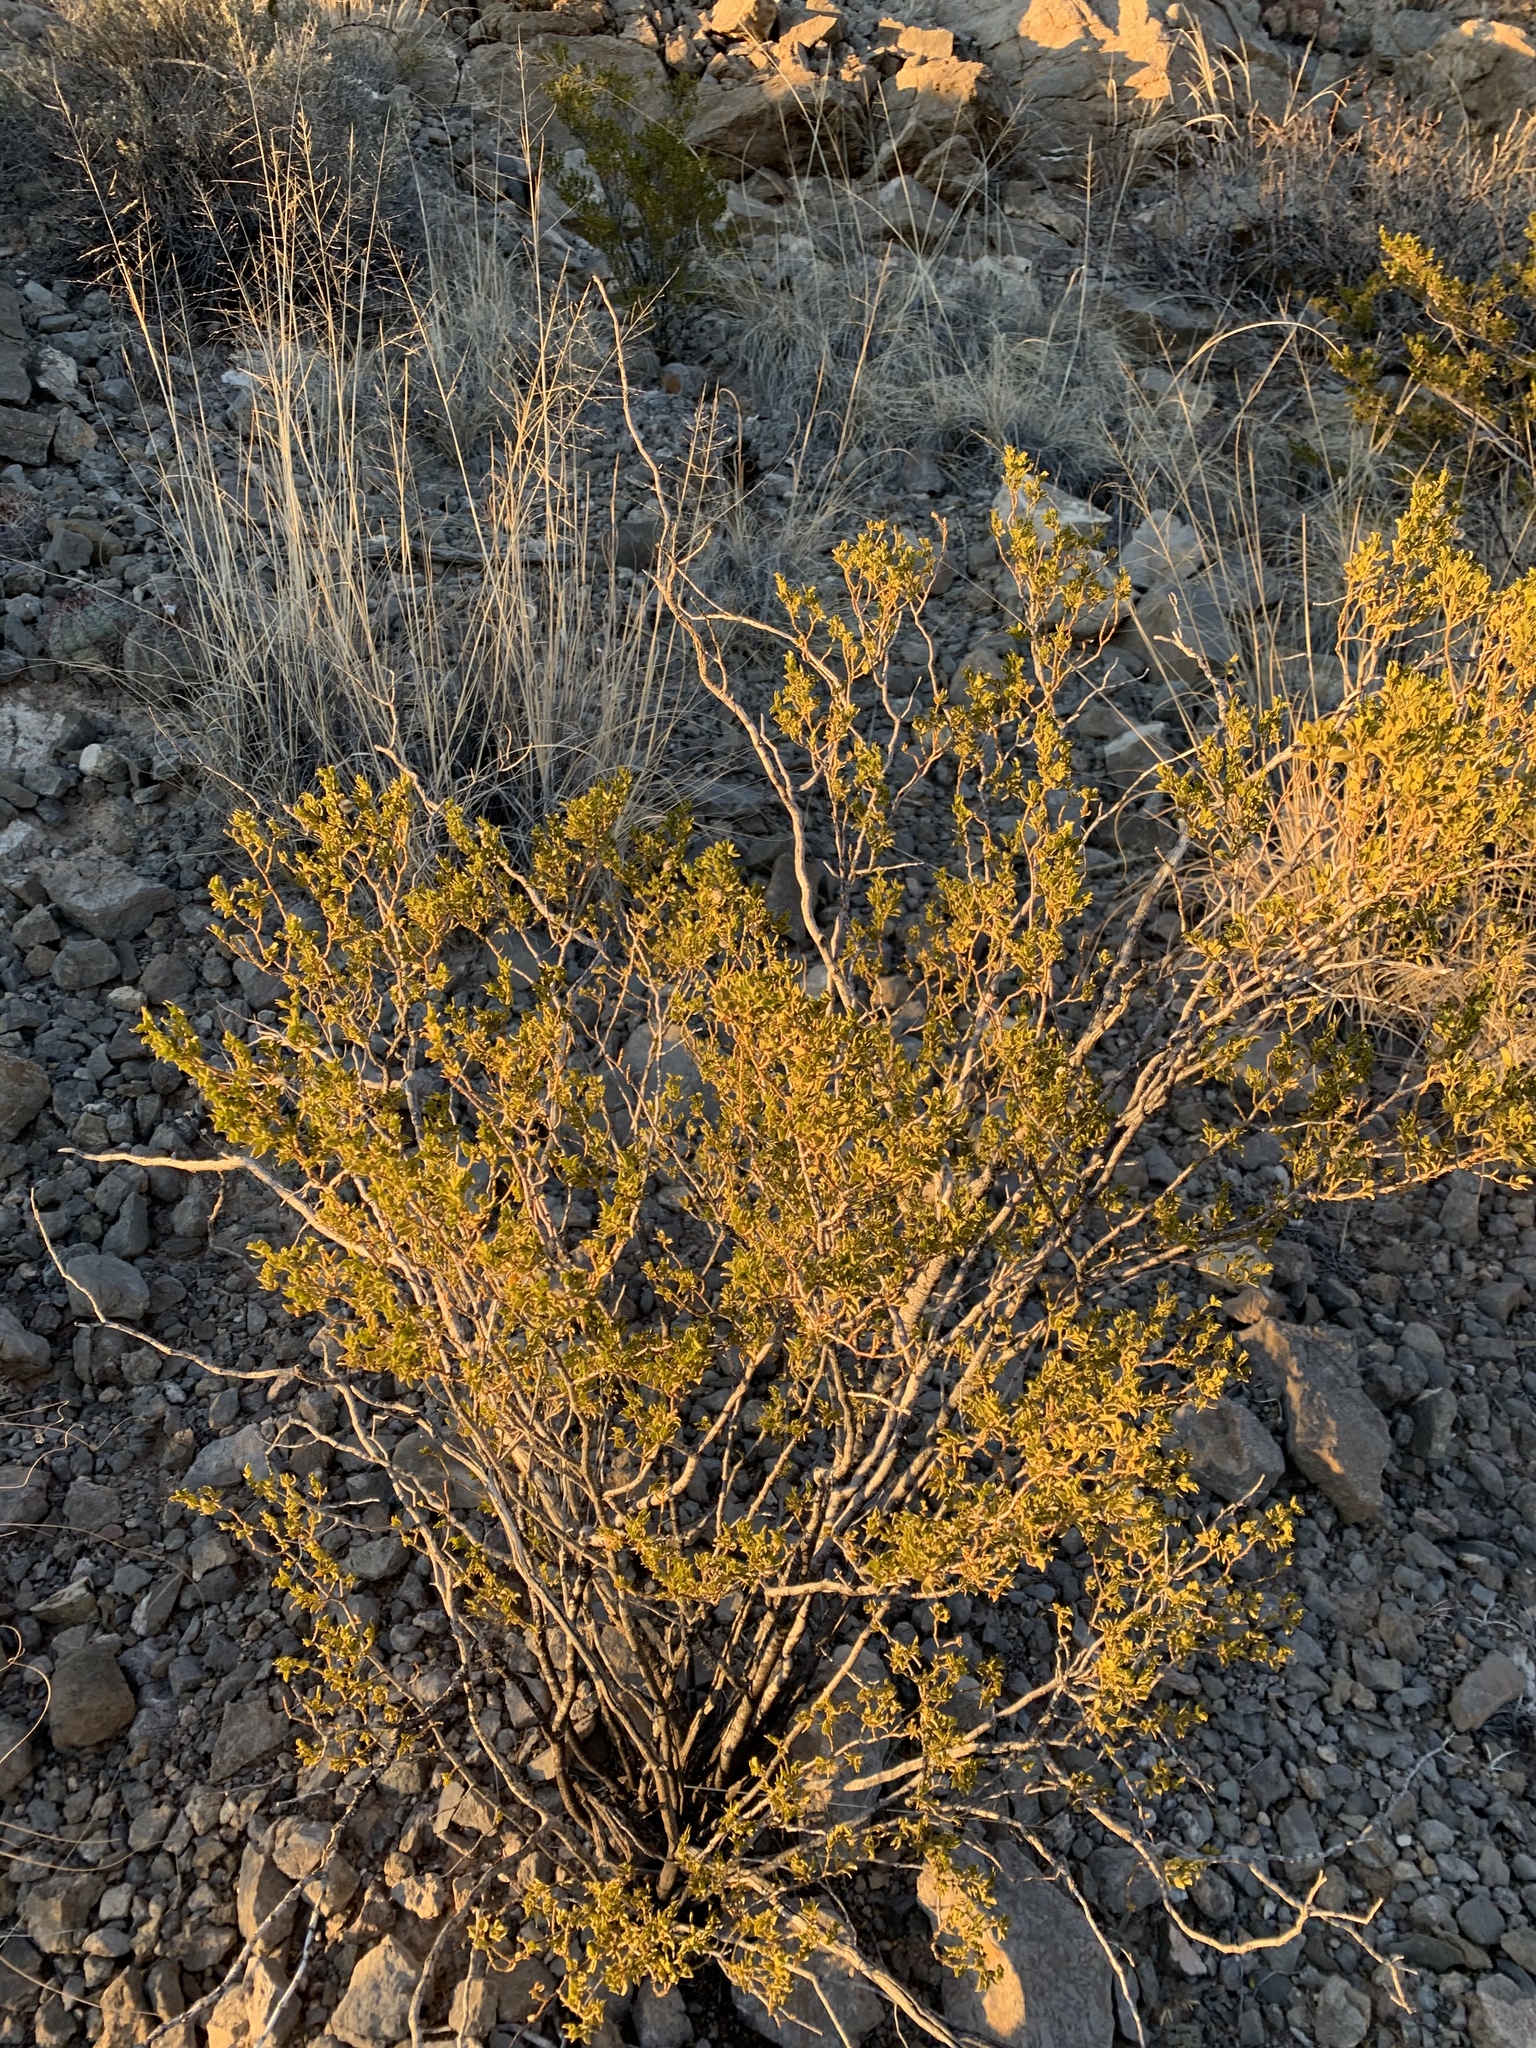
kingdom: Plantae
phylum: Tracheophyta
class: Magnoliopsida
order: Zygophyllales
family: Zygophyllaceae
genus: Larrea
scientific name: Larrea tridentata
